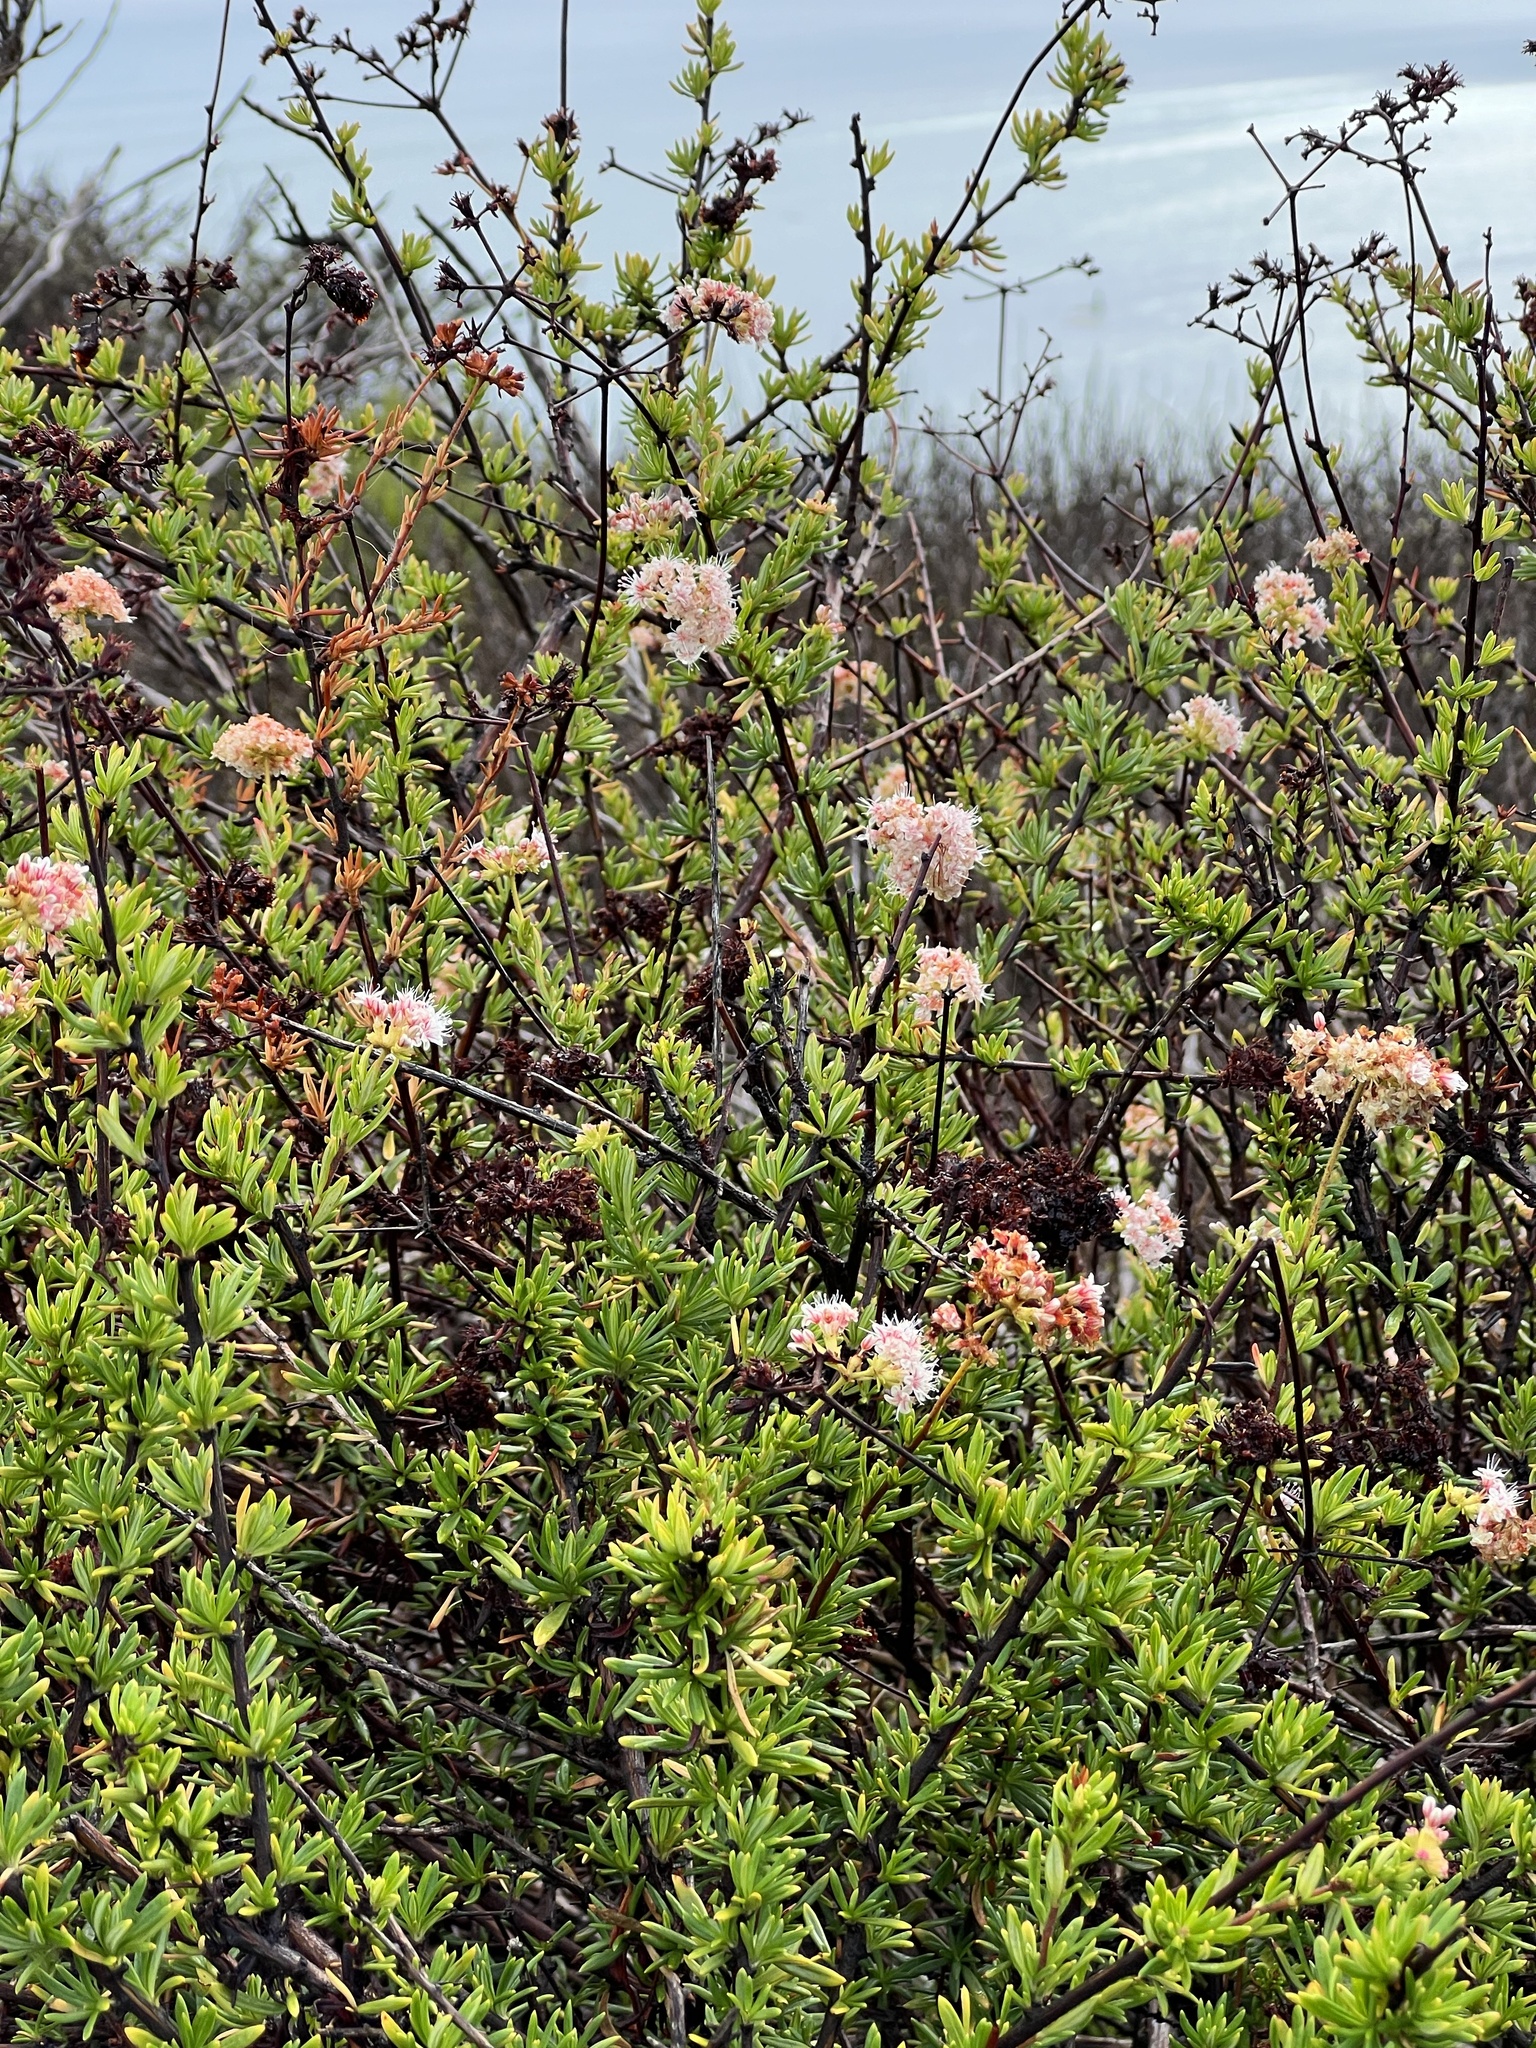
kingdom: Plantae
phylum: Tracheophyta
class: Magnoliopsida
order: Caryophyllales
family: Polygonaceae
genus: Eriogonum
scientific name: Eriogonum fasciculatum
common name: California wild buckwheat
